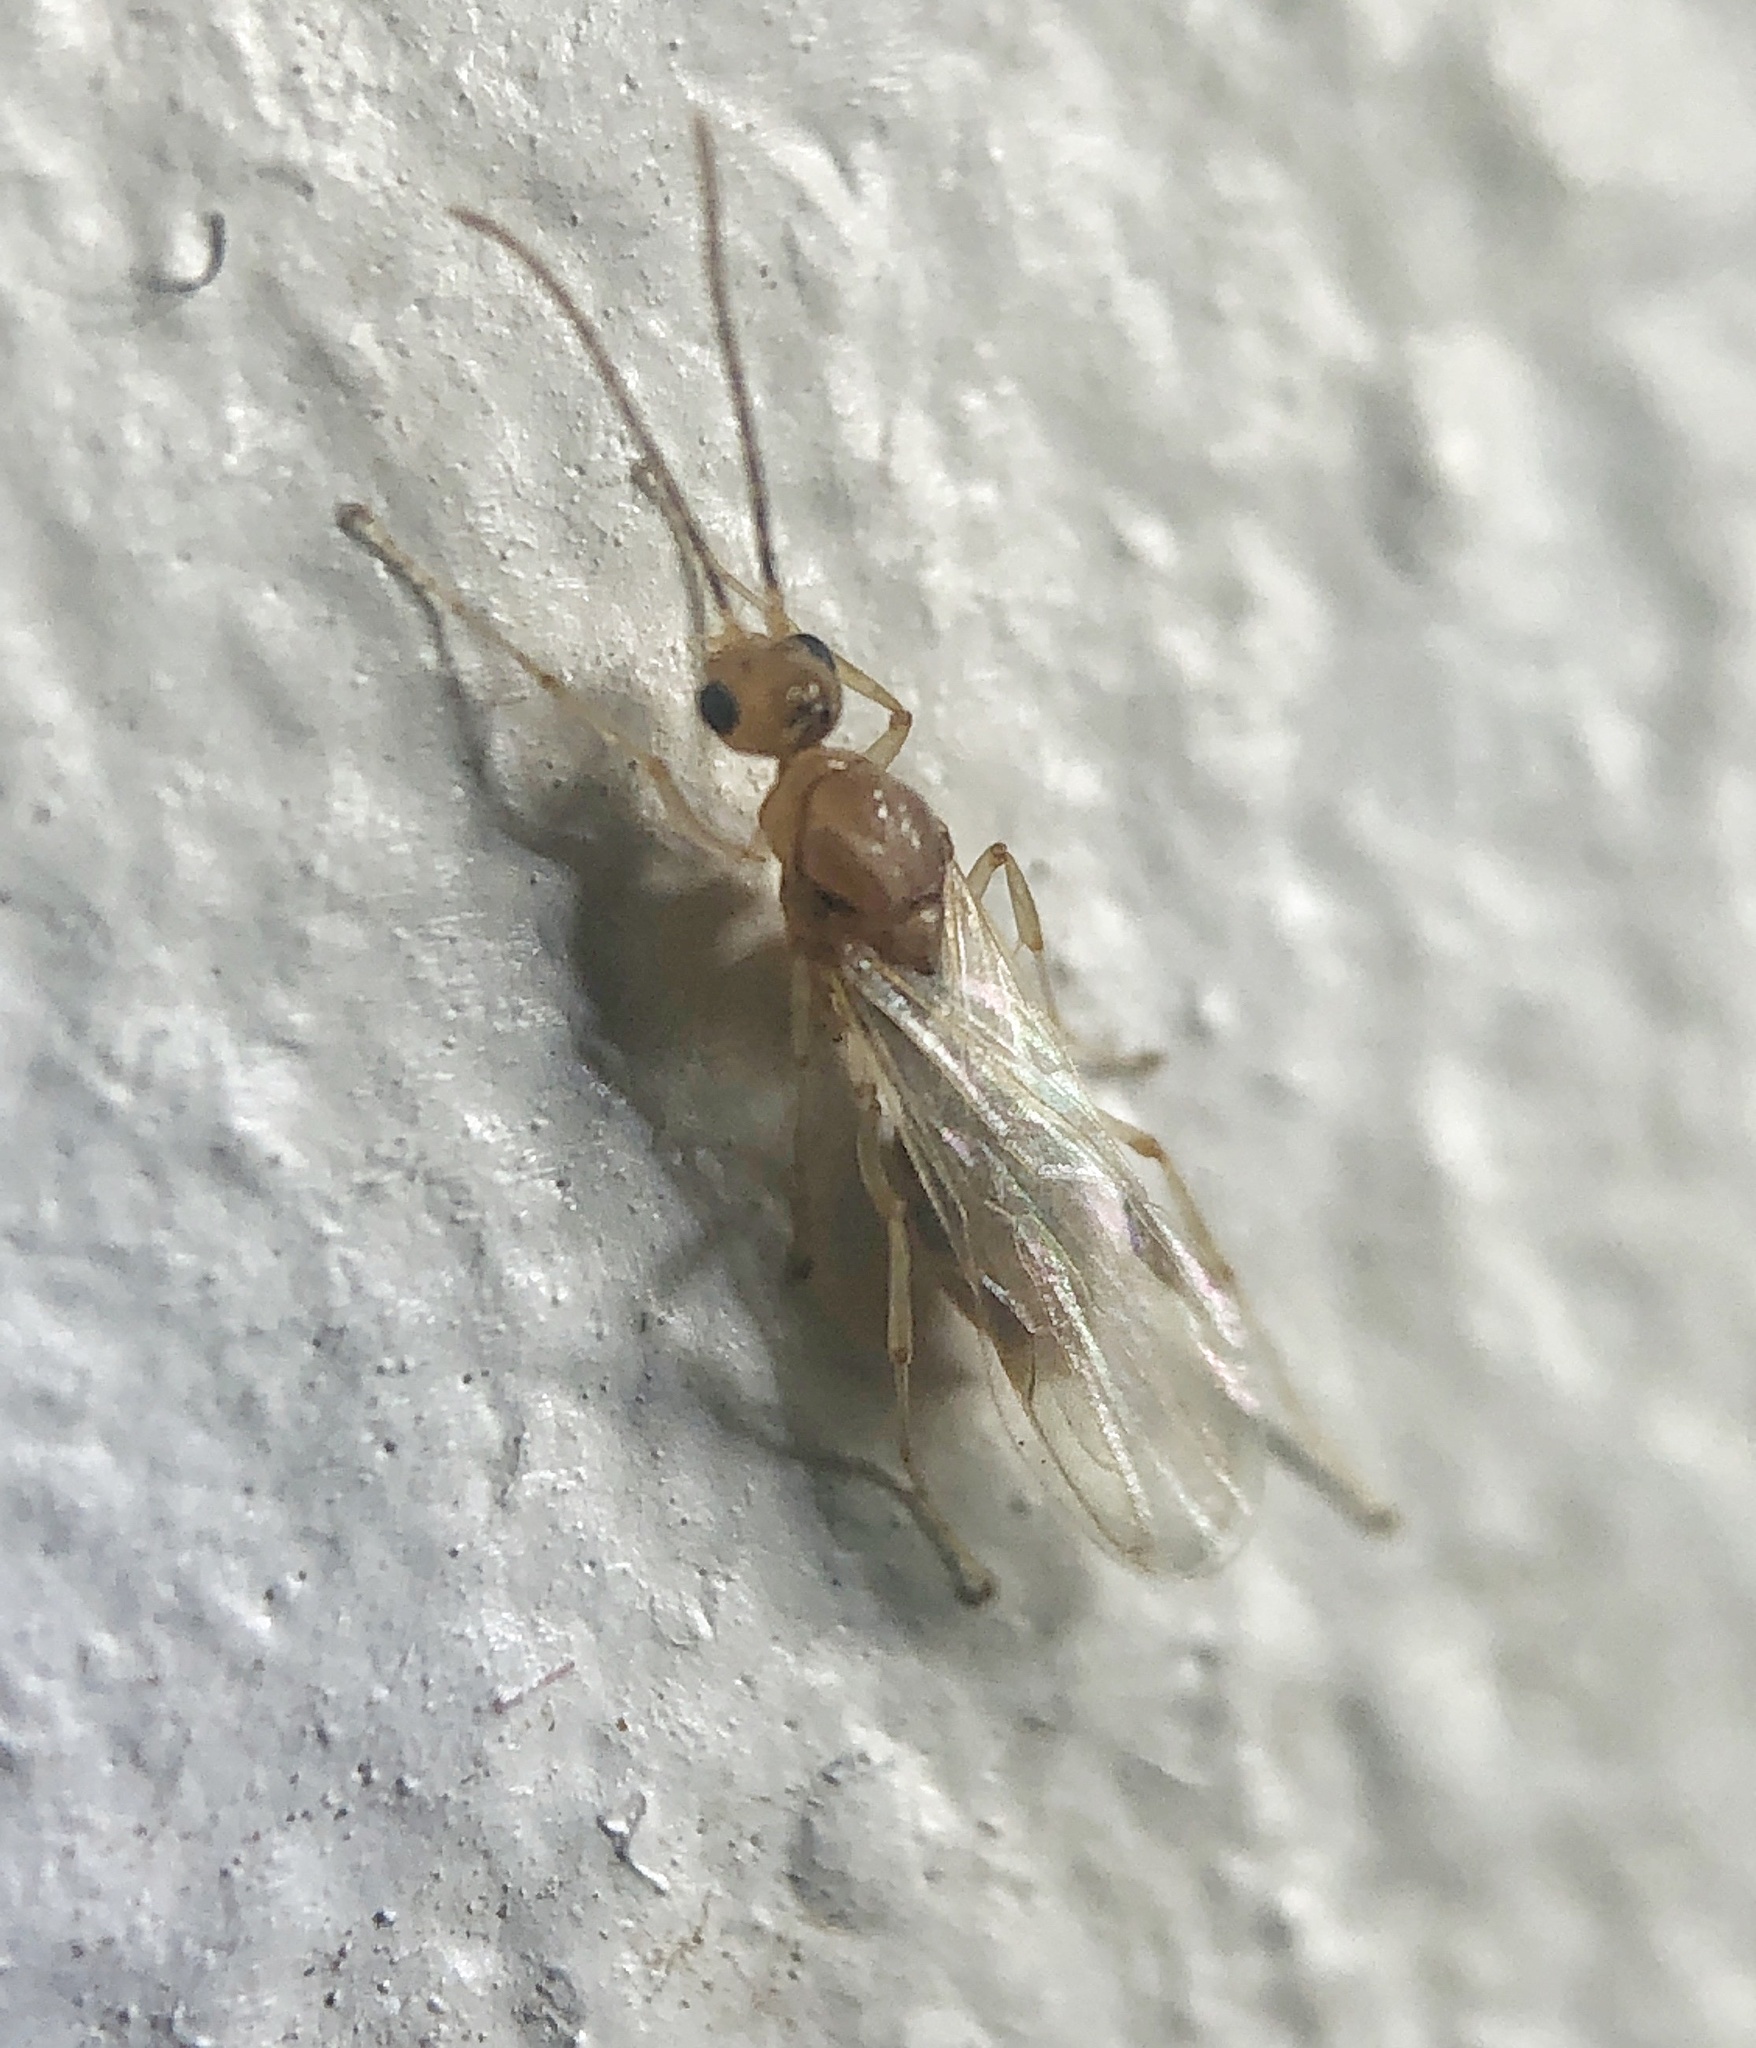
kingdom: Animalia
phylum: Arthropoda
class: Insecta
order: Hymenoptera
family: Formicidae
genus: Pachycondyla
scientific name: Pachycondyla chinensis
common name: Asian needle ant
